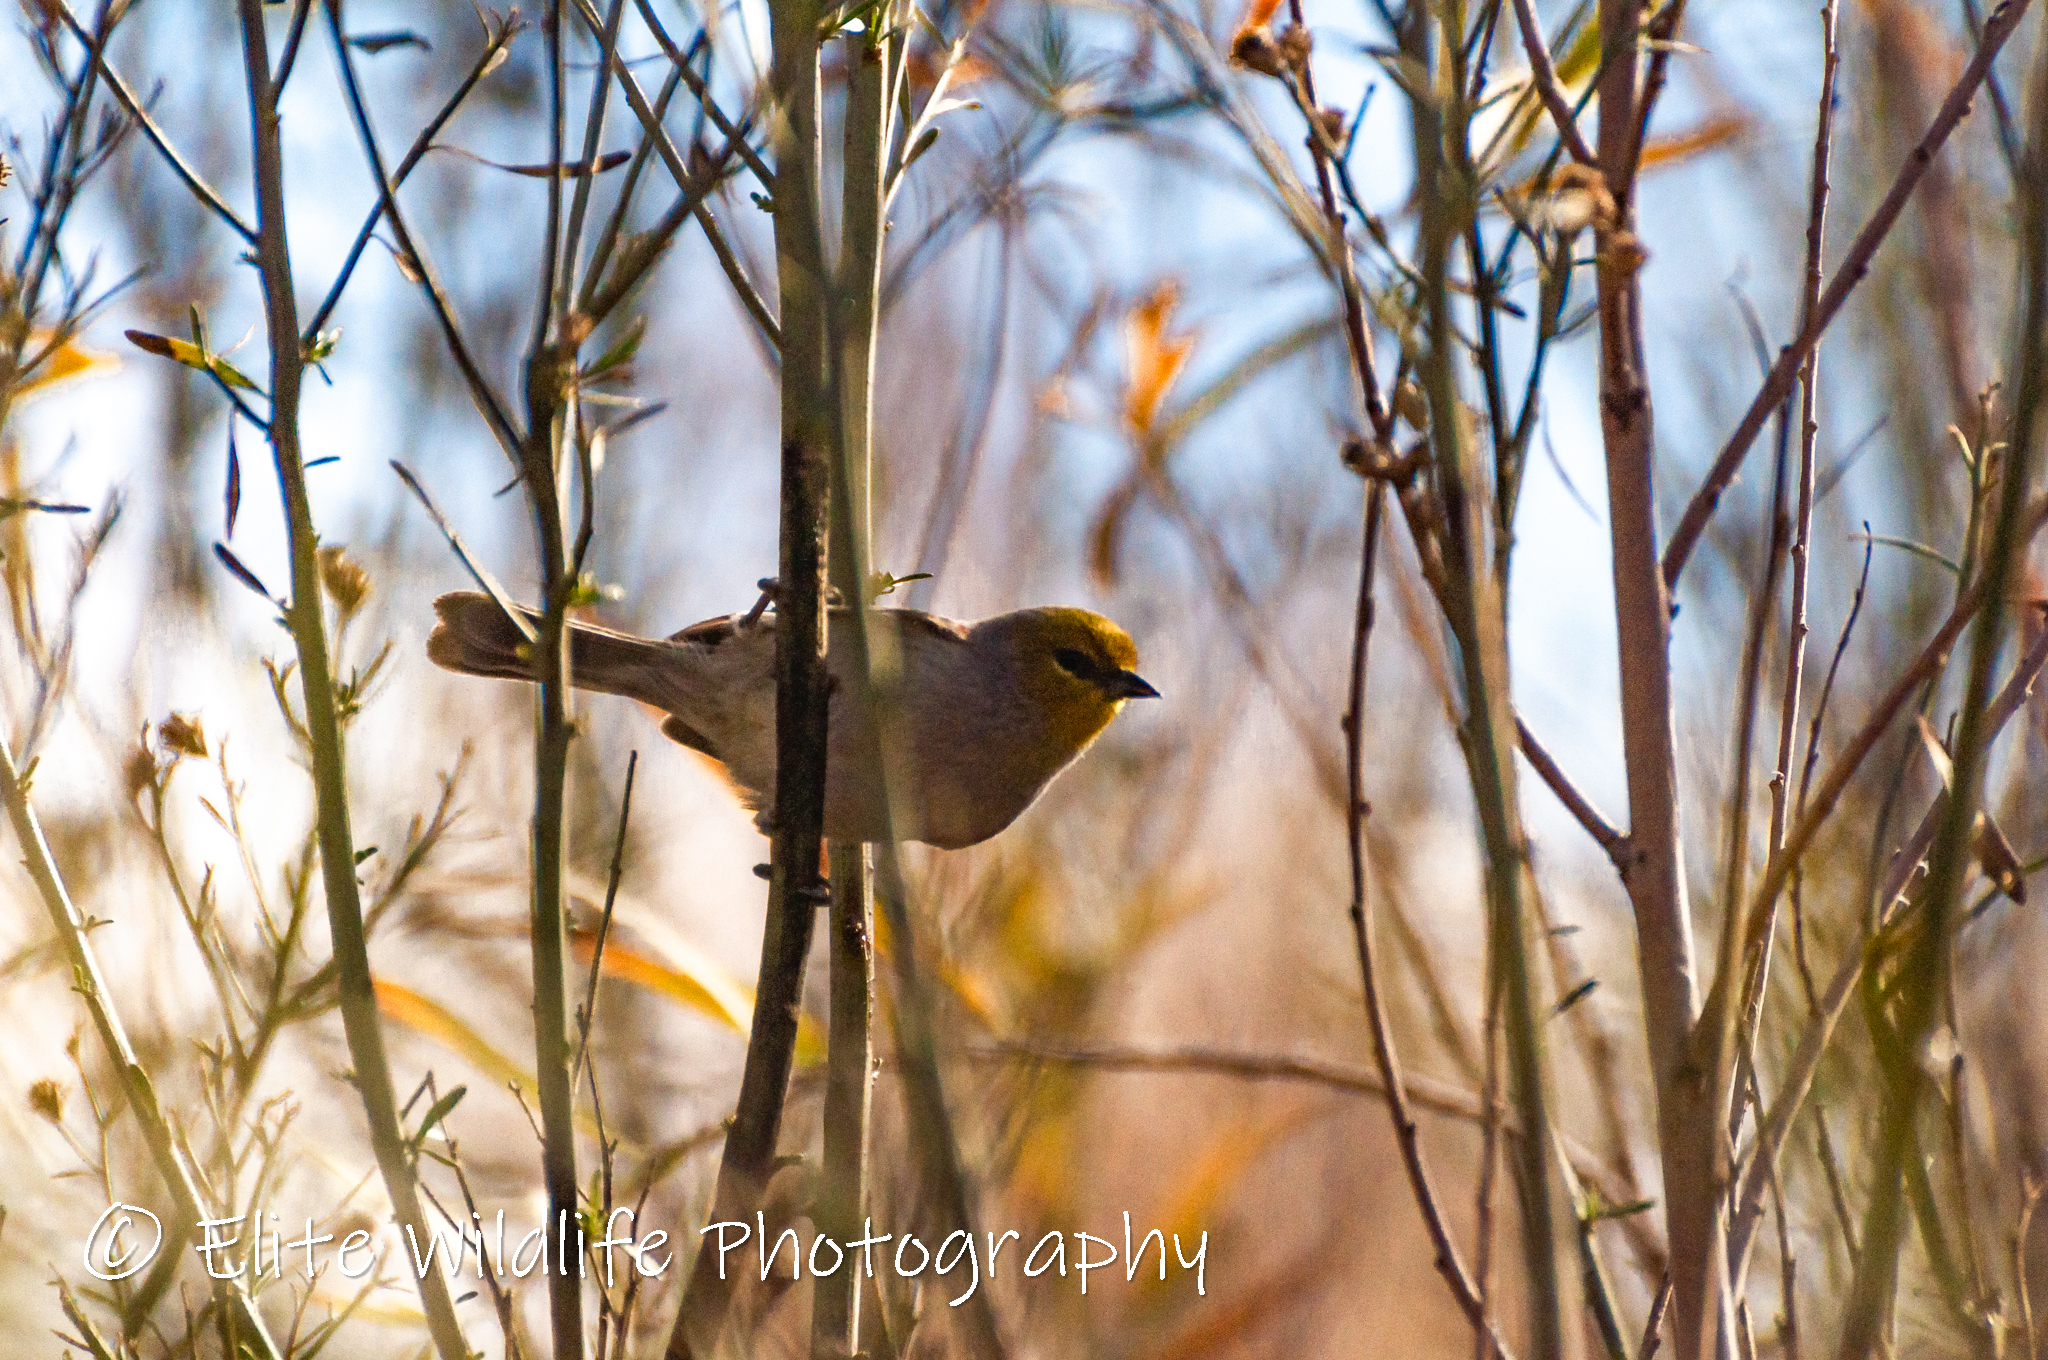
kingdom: Animalia
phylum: Chordata
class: Aves
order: Passeriformes
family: Remizidae
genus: Auriparus
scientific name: Auriparus flaviceps
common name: Verdin
